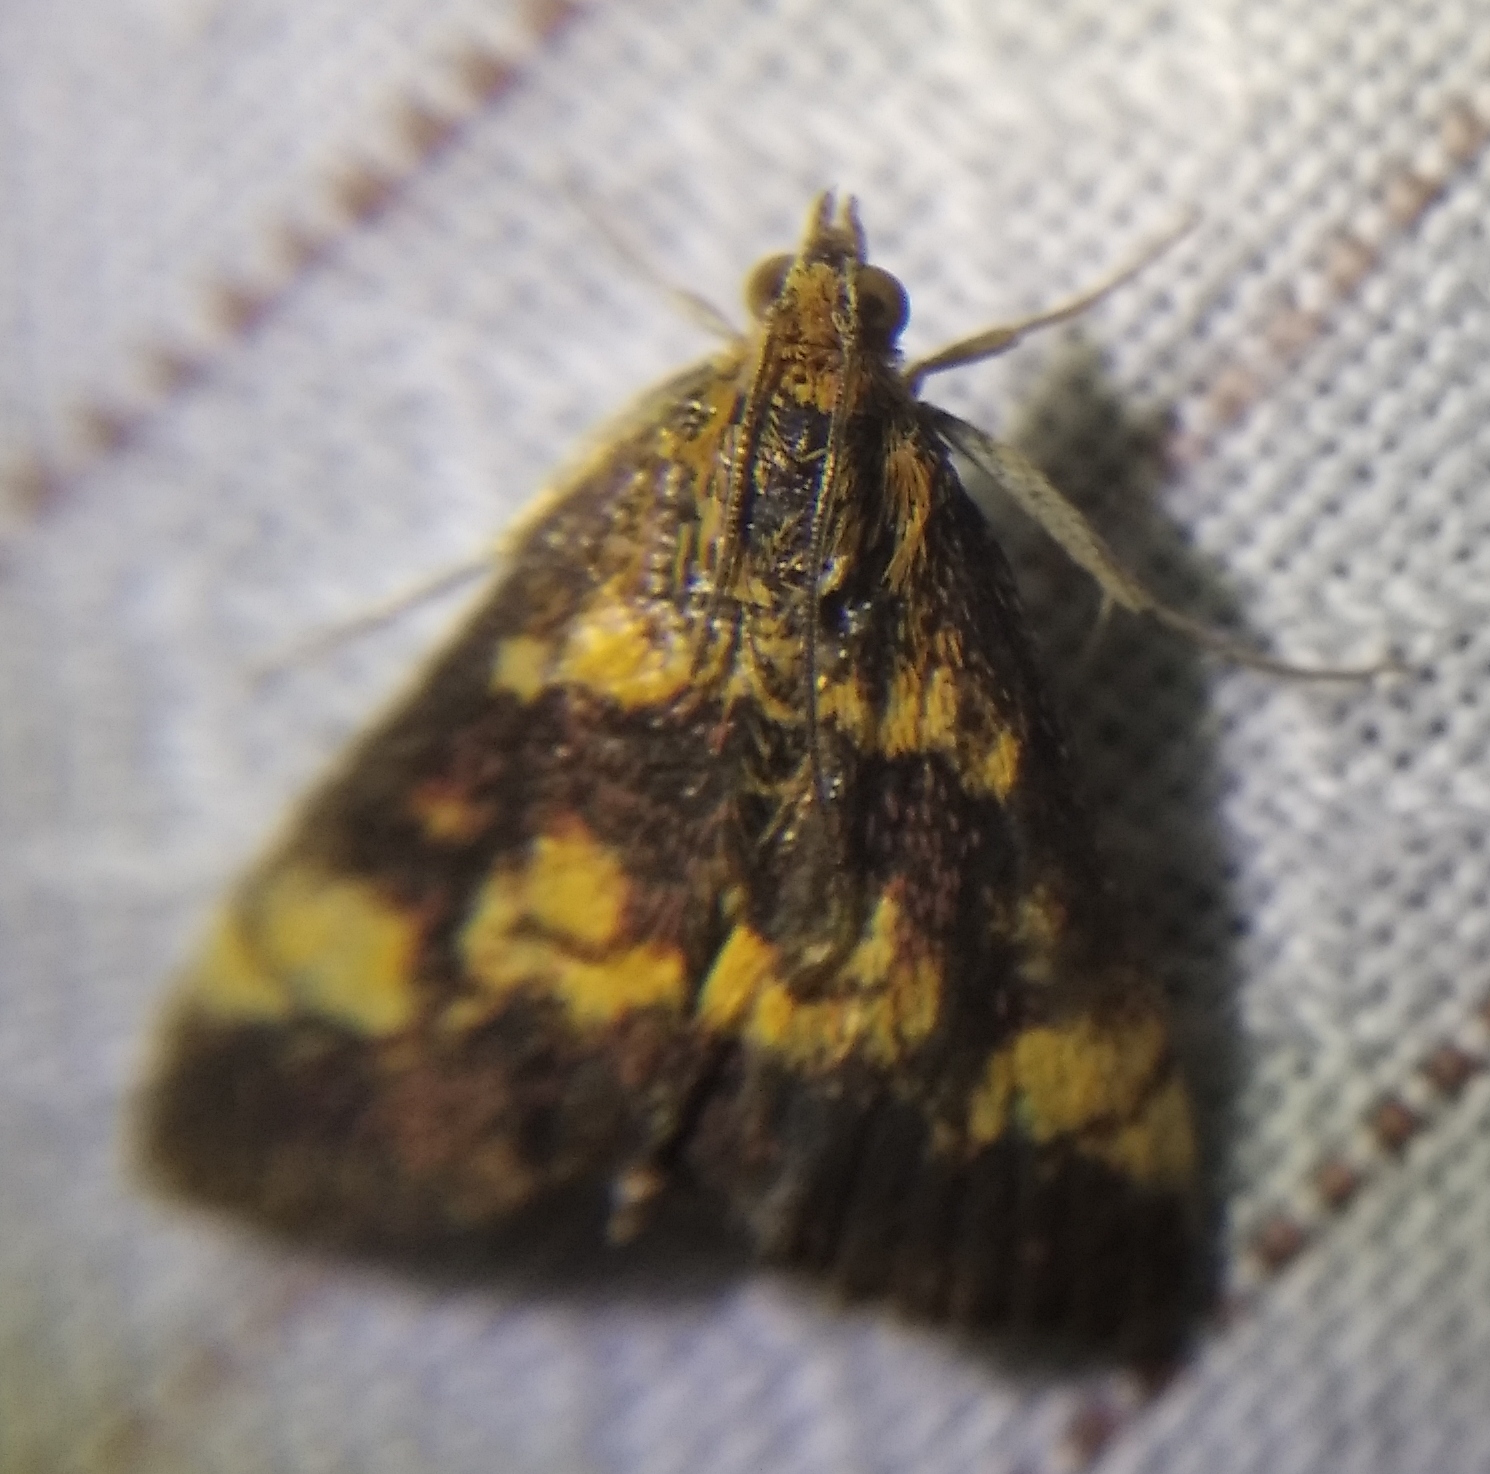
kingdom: Animalia
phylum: Arthropoda
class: Insecta
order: Lepidoptera
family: Crambidae
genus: Pyrausta
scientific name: Pyrausta aurata
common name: Small purple & gold
